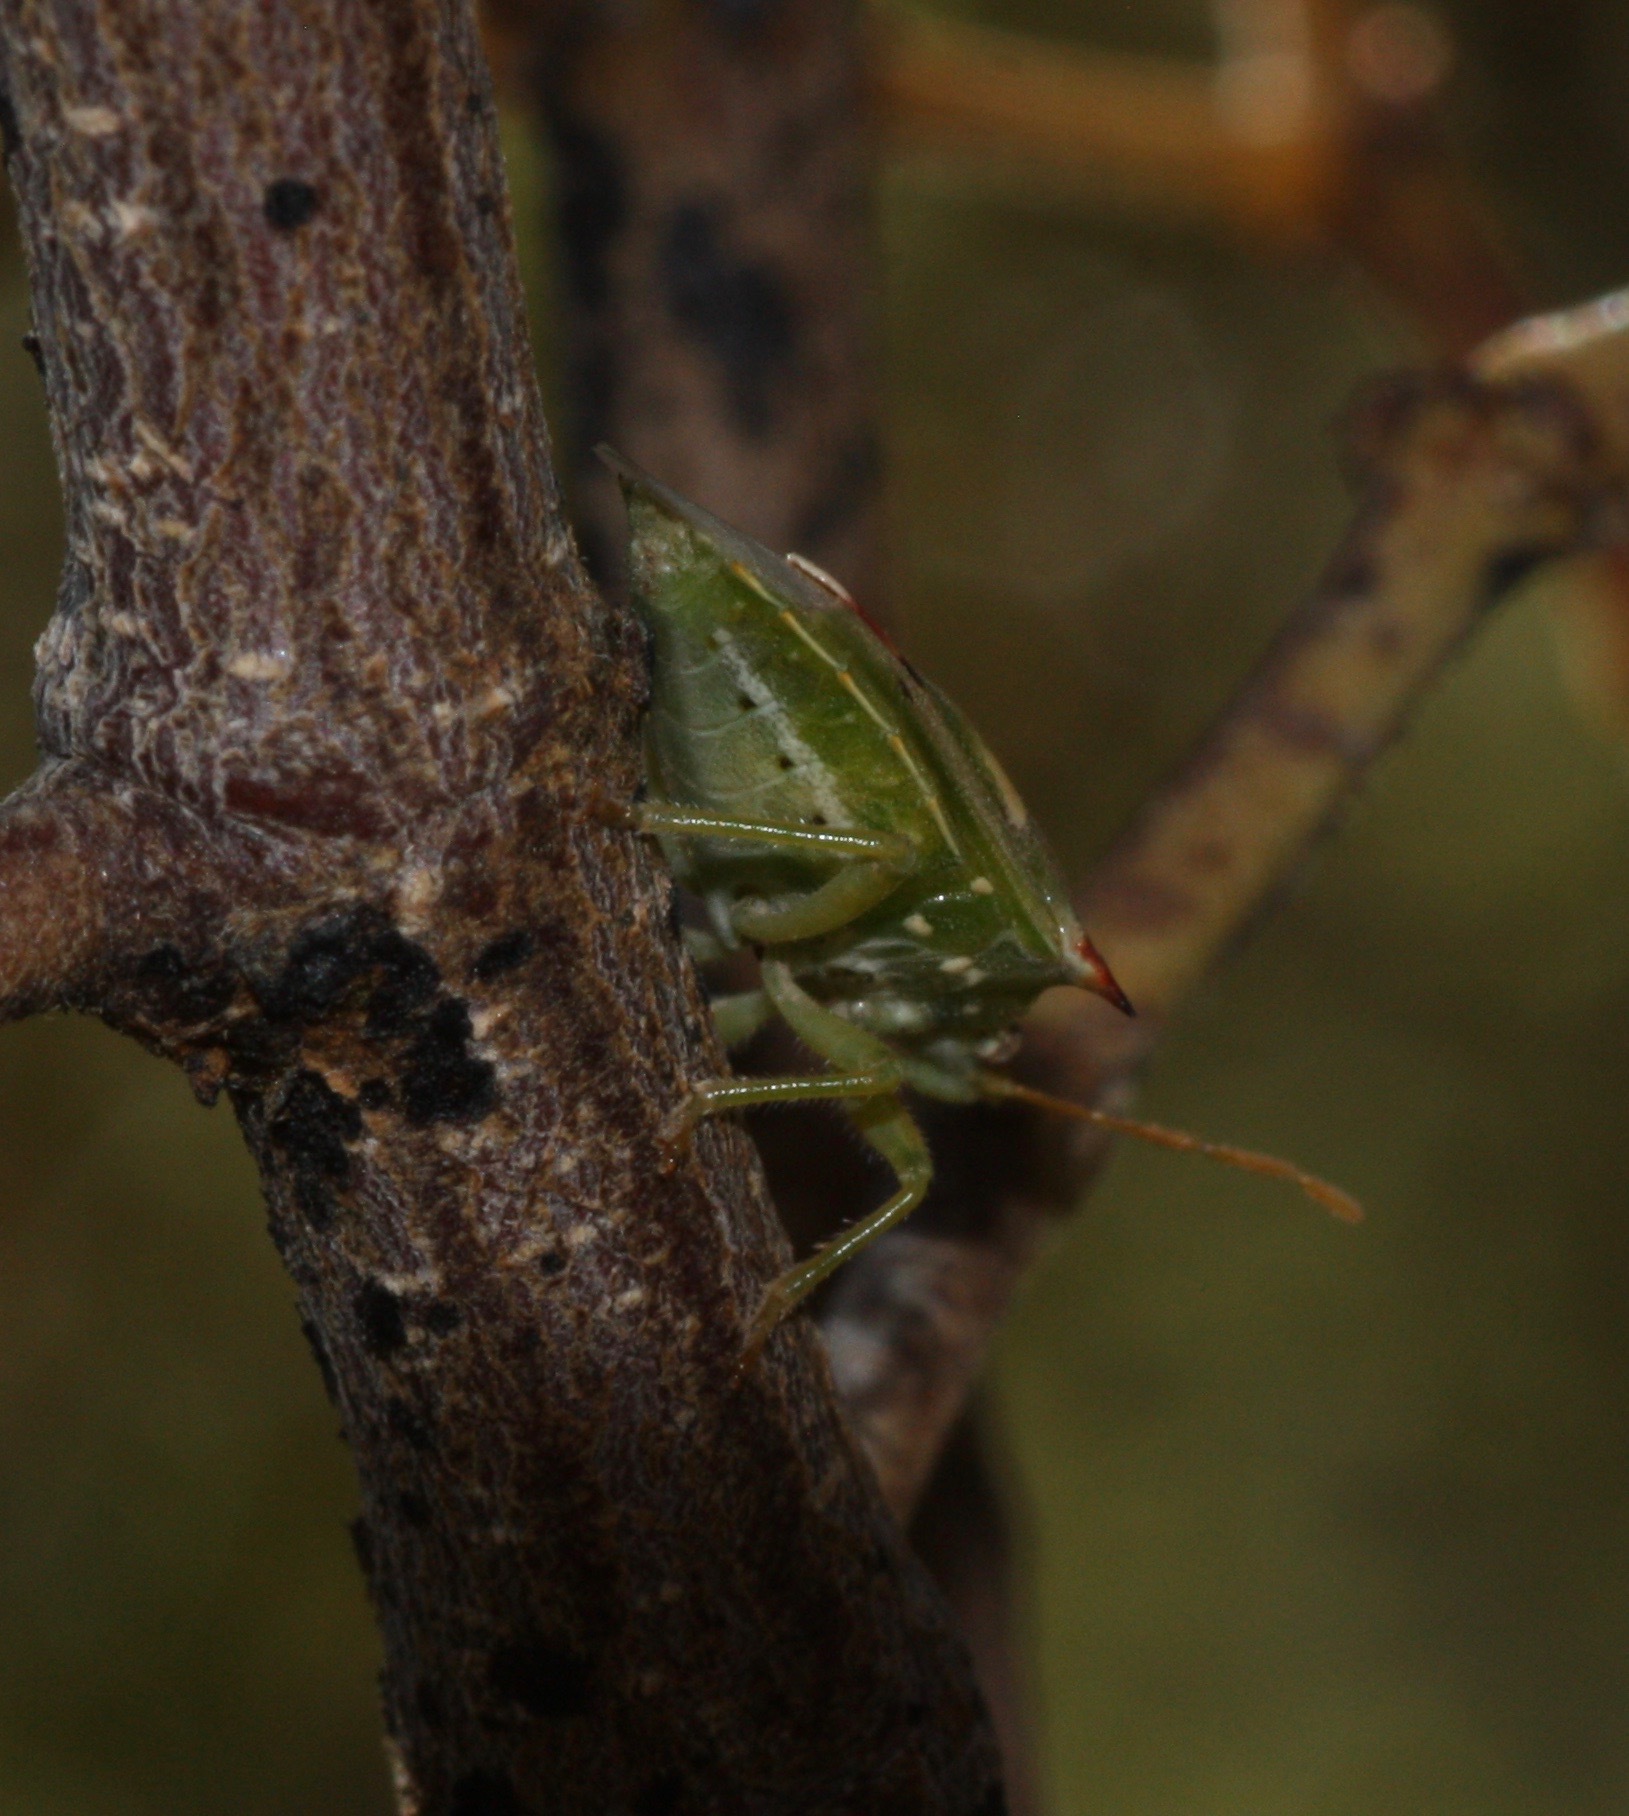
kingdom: Animalia
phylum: Arthropoda
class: Insecta
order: Hemiptera
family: Pentatomidae
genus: Tylospilus
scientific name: Tylospilus acutissimus
